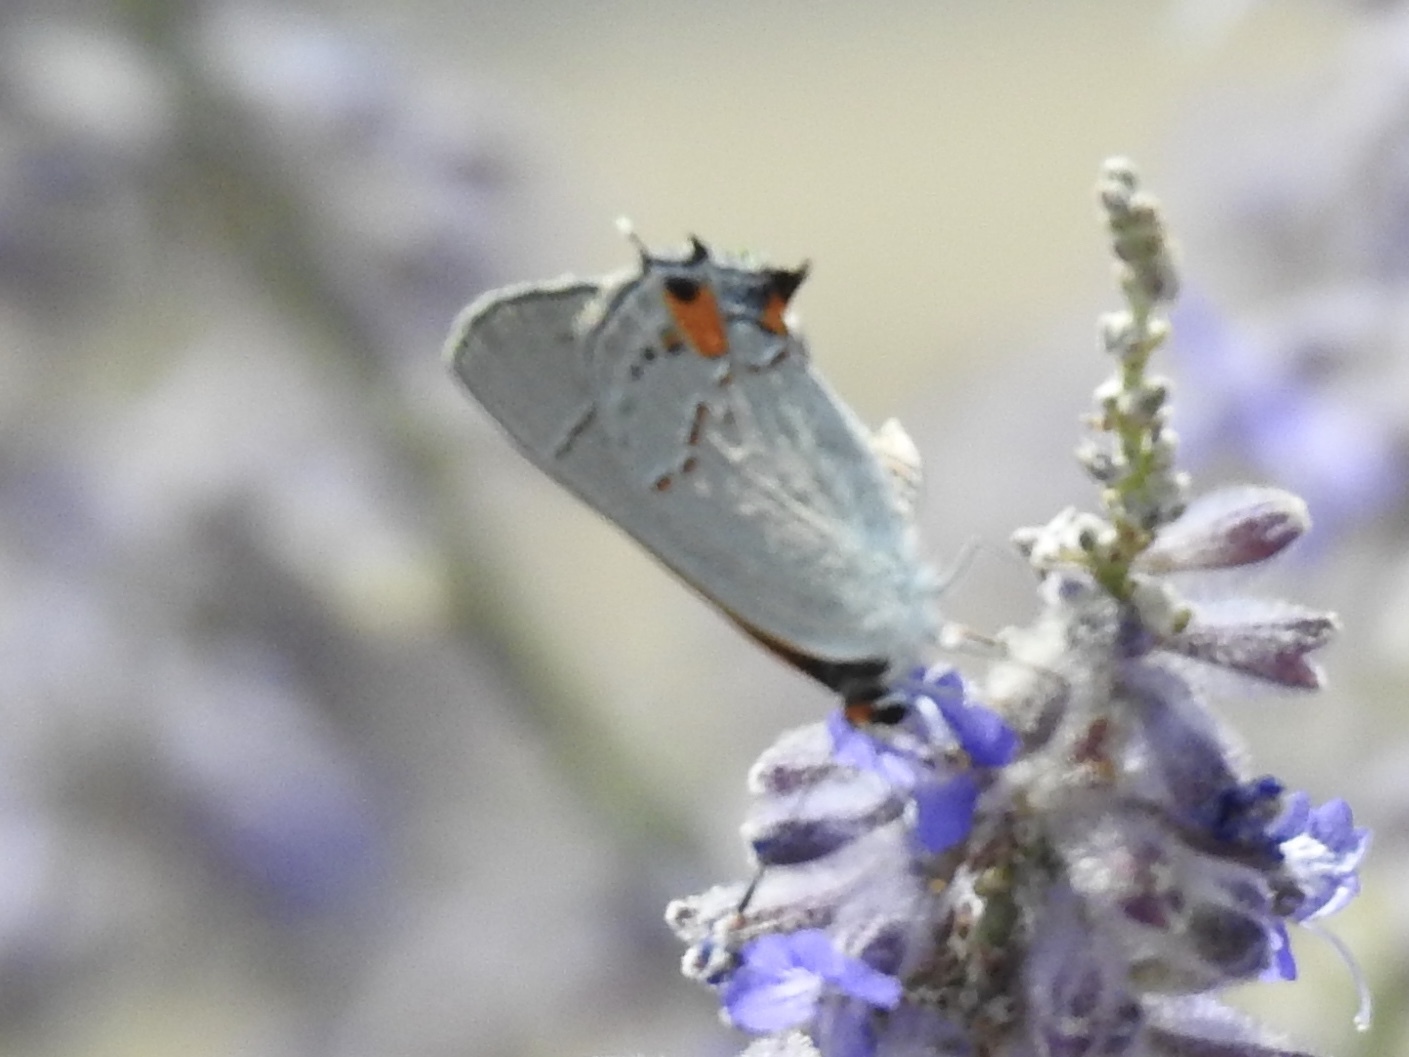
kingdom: Animalia
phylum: Arthropoda
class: Insecta
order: Lepidoptera
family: Lycaenidae
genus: Strymon
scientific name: Strymon melinus
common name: Gray hairstreak
